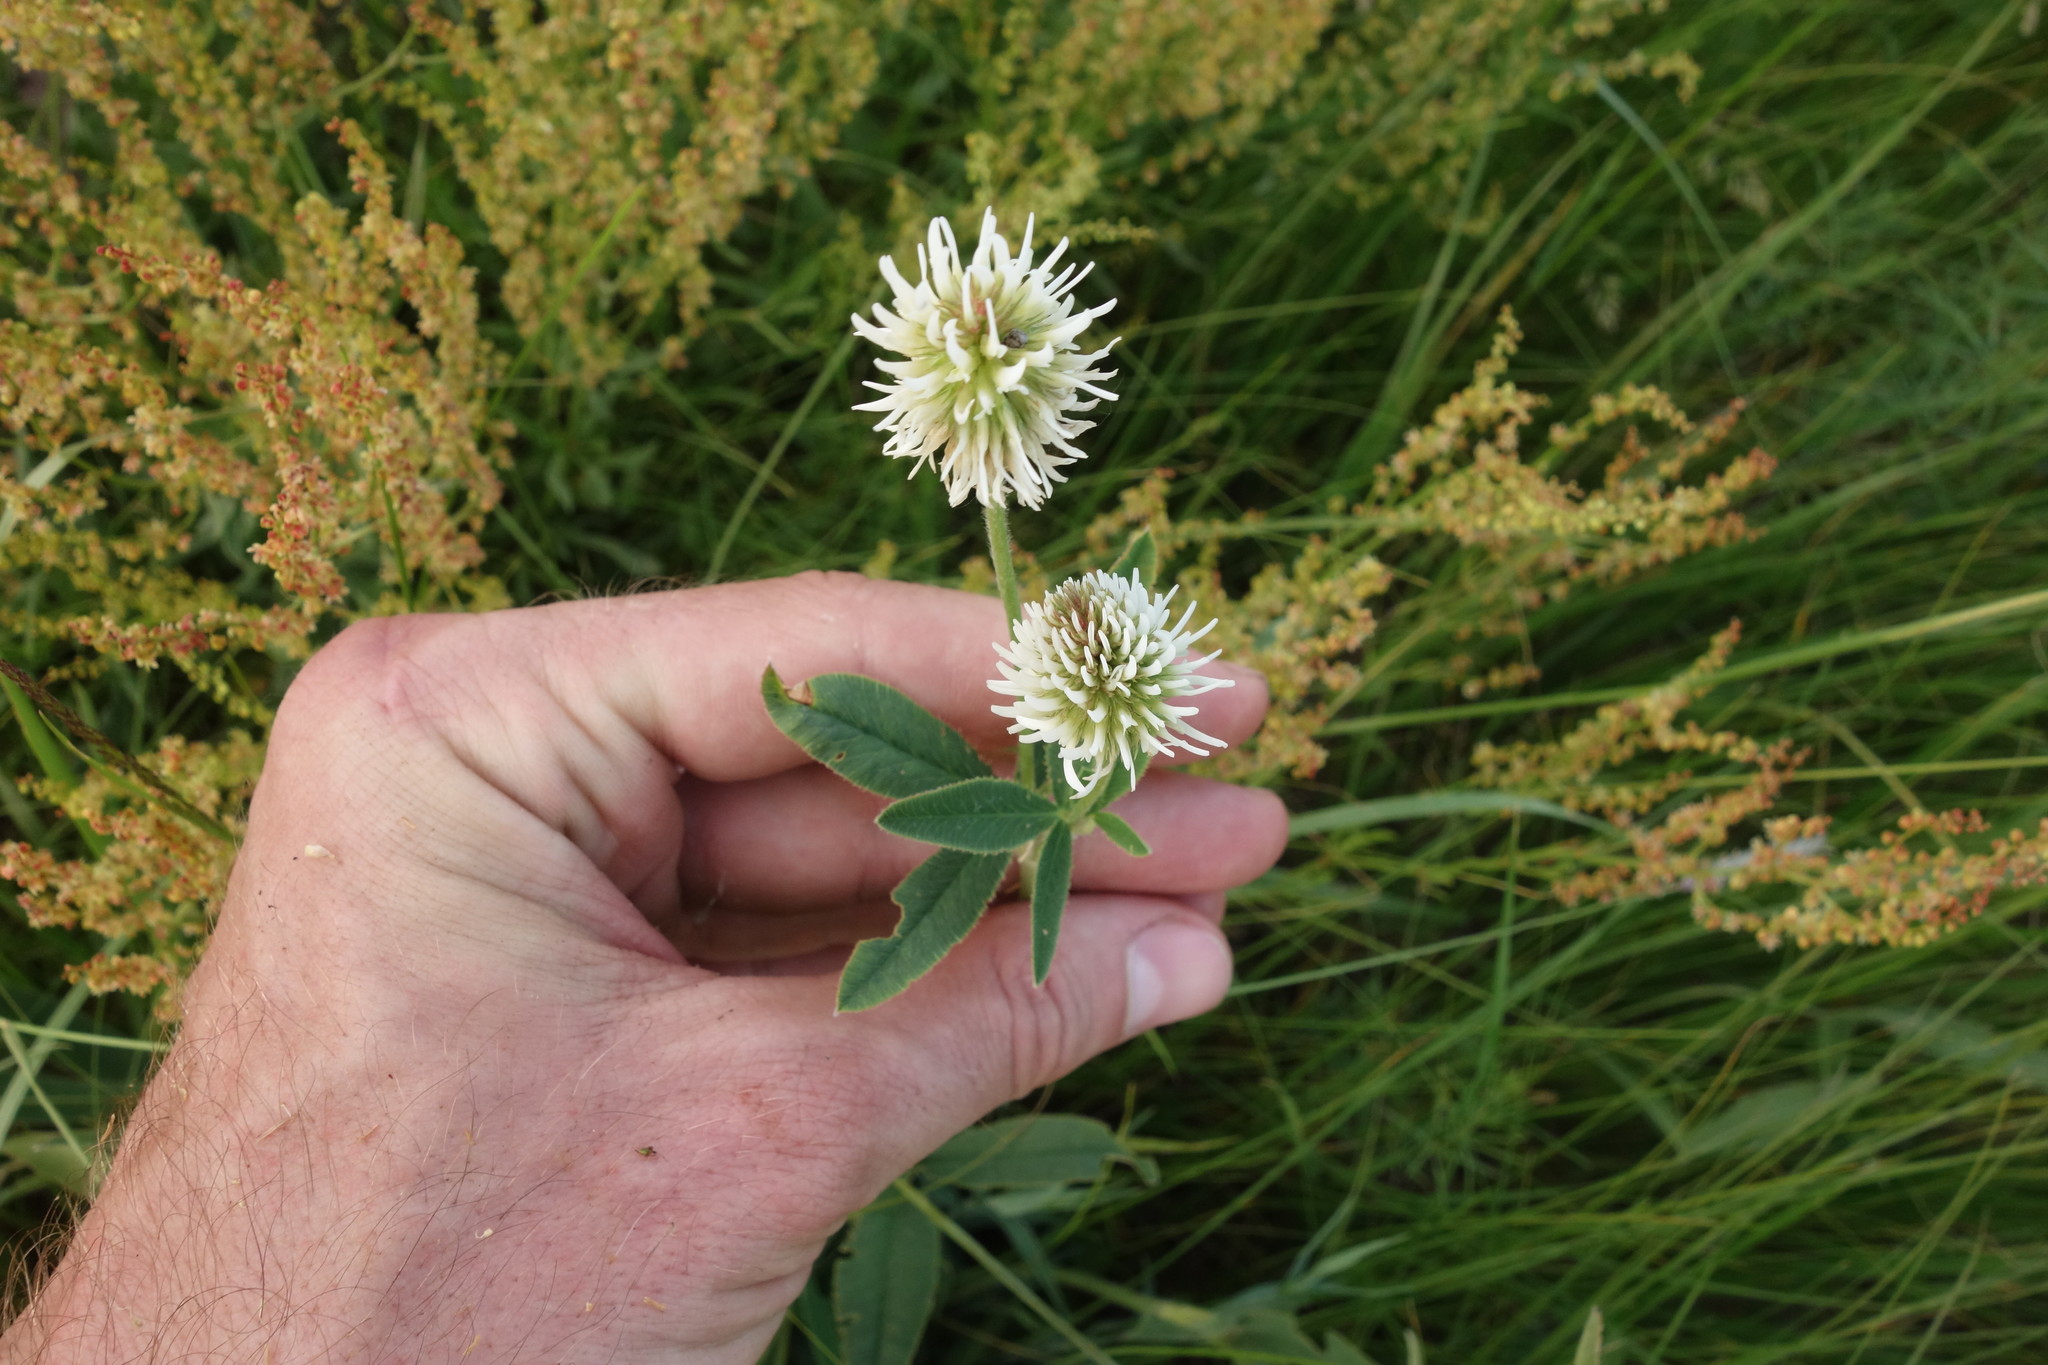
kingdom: Plantae
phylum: Tracheophyta
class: Magnoliopsida
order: Fabales
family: Fabaceae
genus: Trifolium
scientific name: Trifolium montanum
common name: Mountain clover
